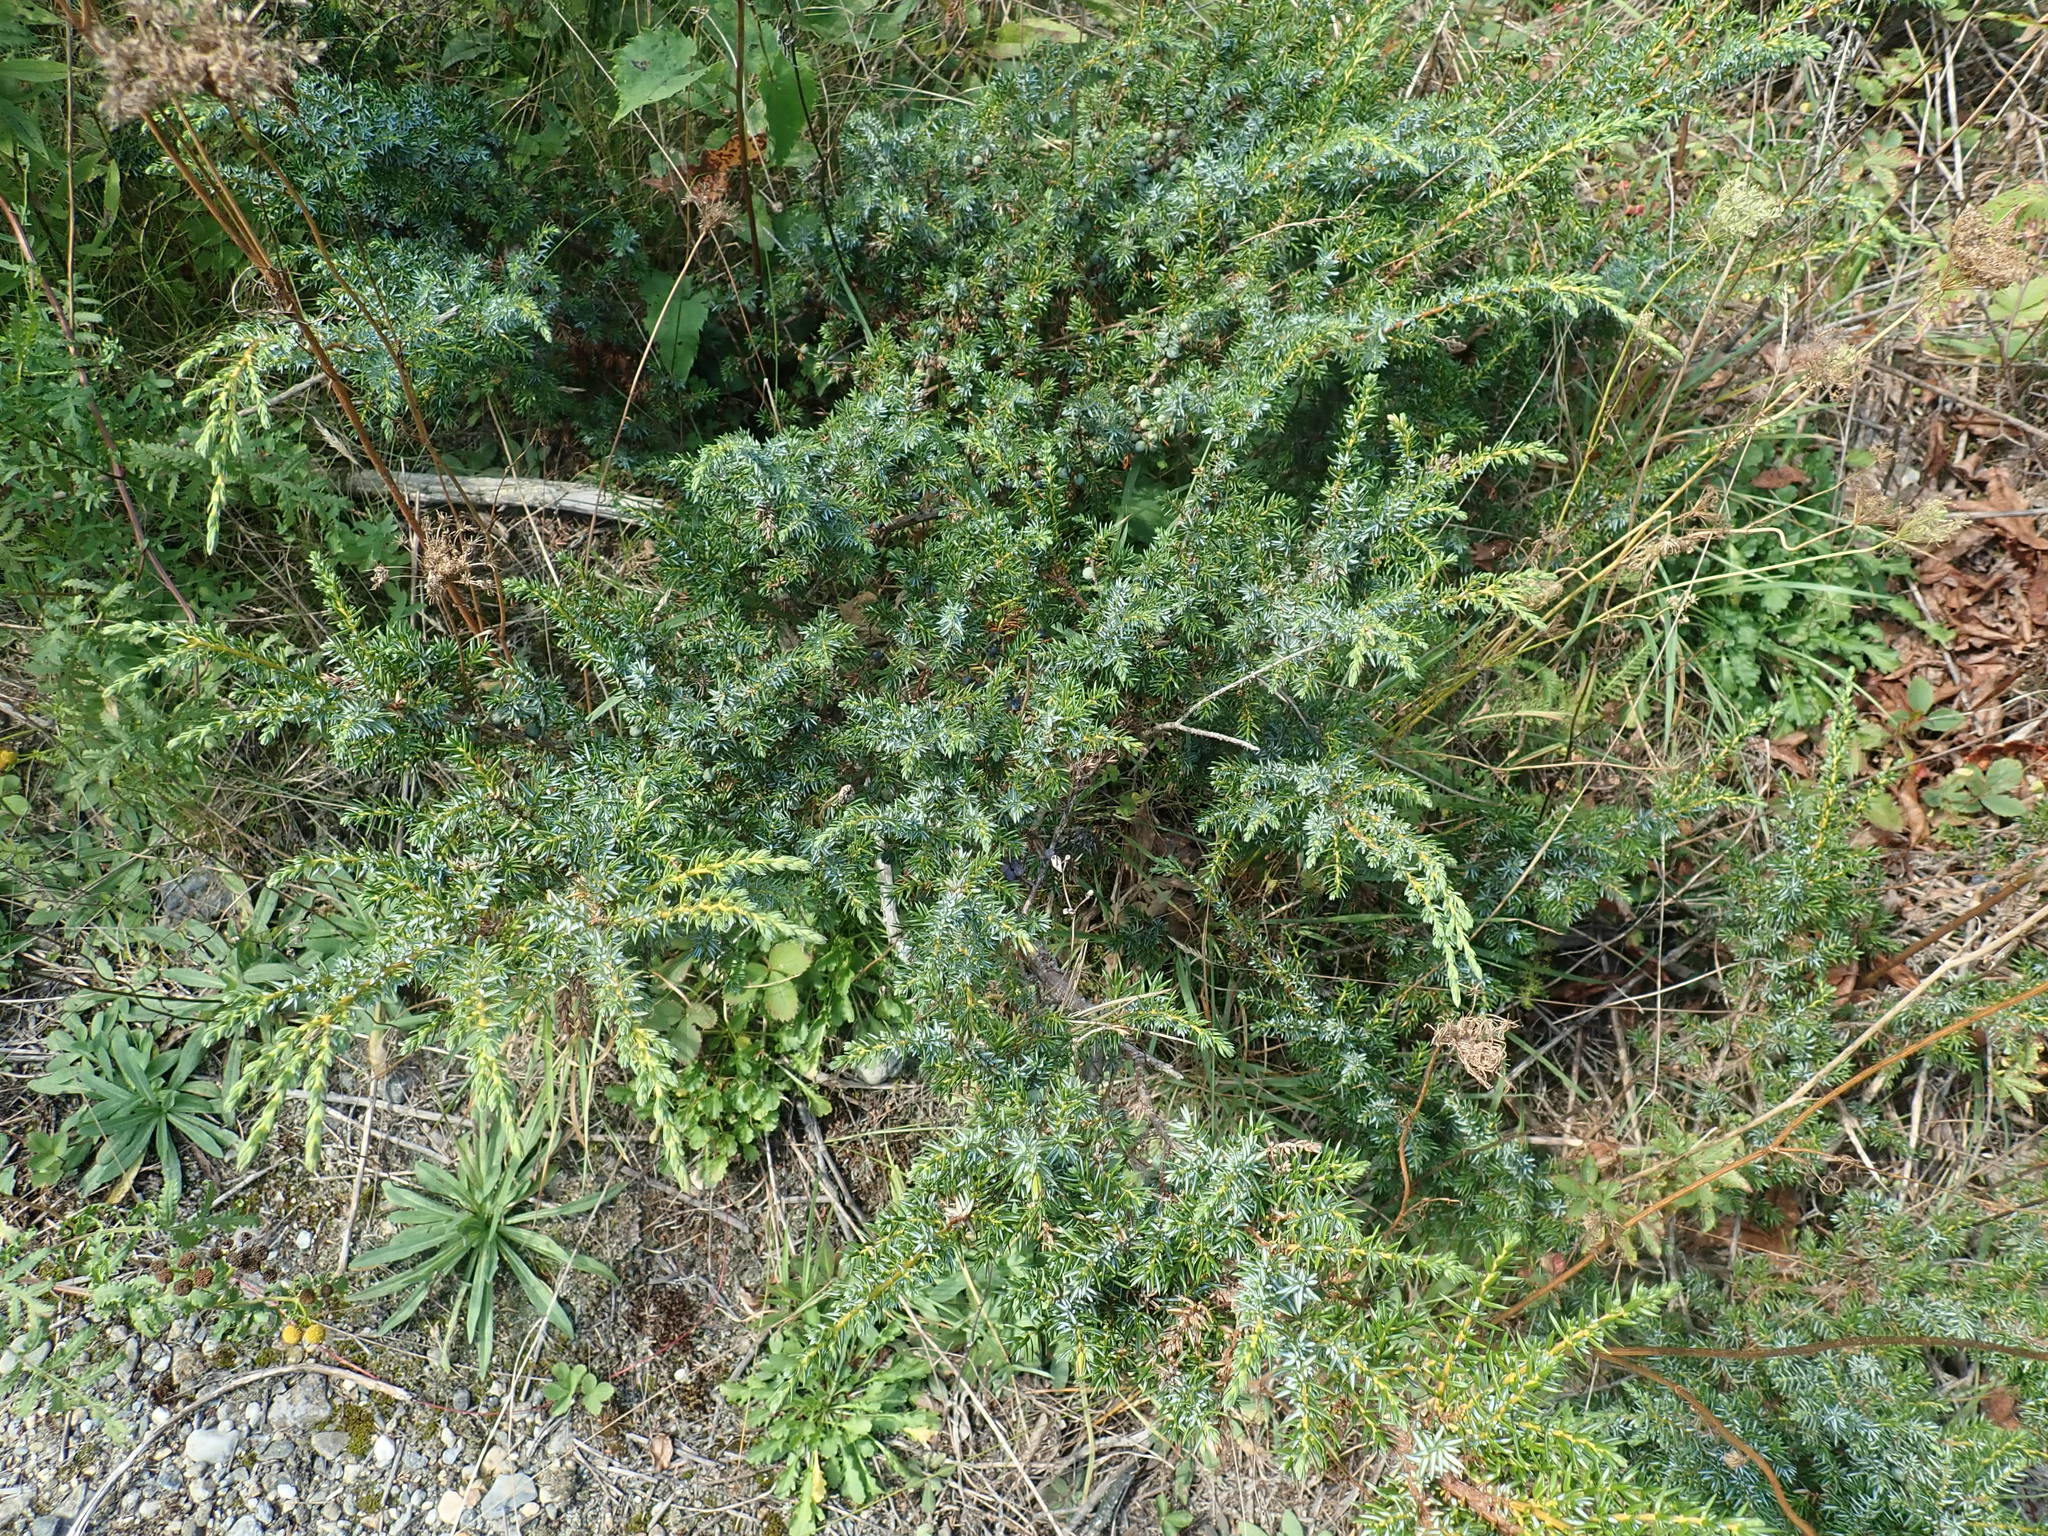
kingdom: Plantae
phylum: Tracheophyta
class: Pinopsida
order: Pinales
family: Cupressaceae
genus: Juniperus
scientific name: Juniperus communis
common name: Common juniper
